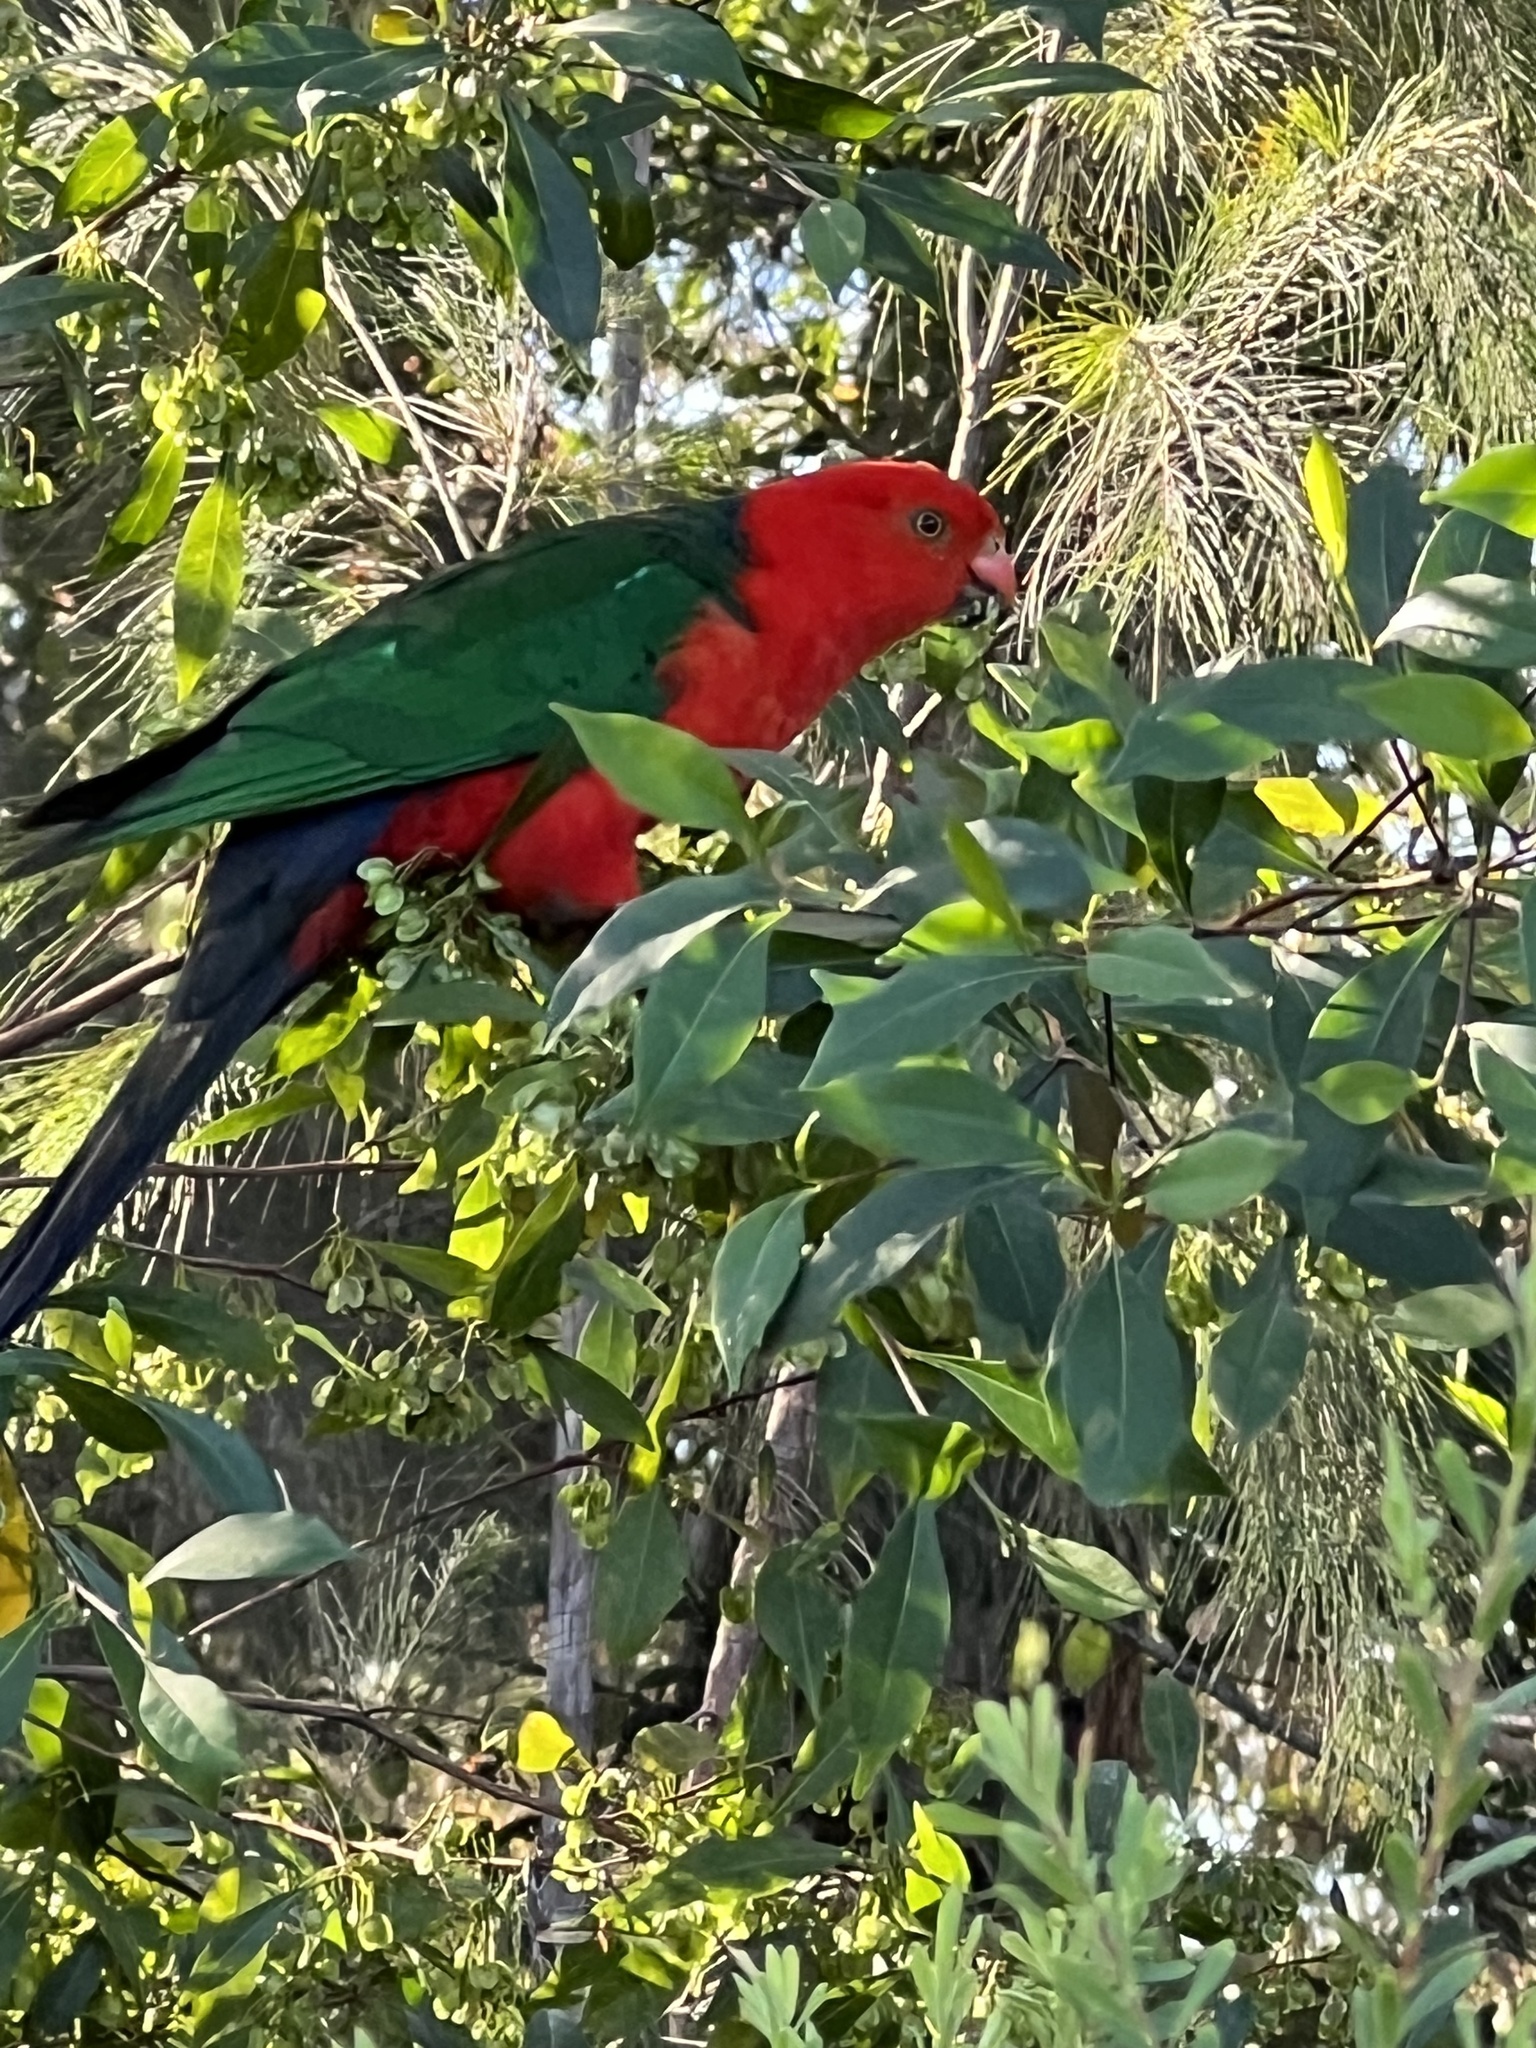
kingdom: Animalia
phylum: Chordata
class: Aves
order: Psittaciformes
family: Psittacidae
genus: Alisterus
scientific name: Alisterus scapularis
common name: Australian king parrot
